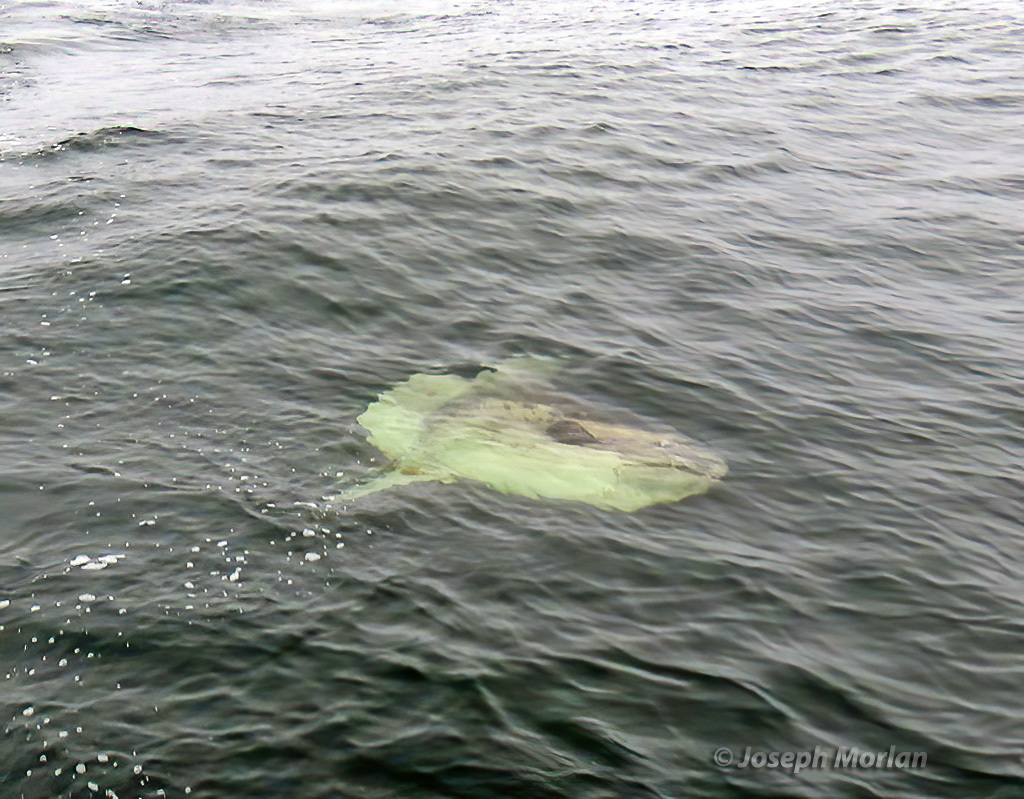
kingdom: Animalia
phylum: Chordata
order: Tetraodontiformes
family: Molidae
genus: Mola
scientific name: Mola mola
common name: Ocean sunfish
